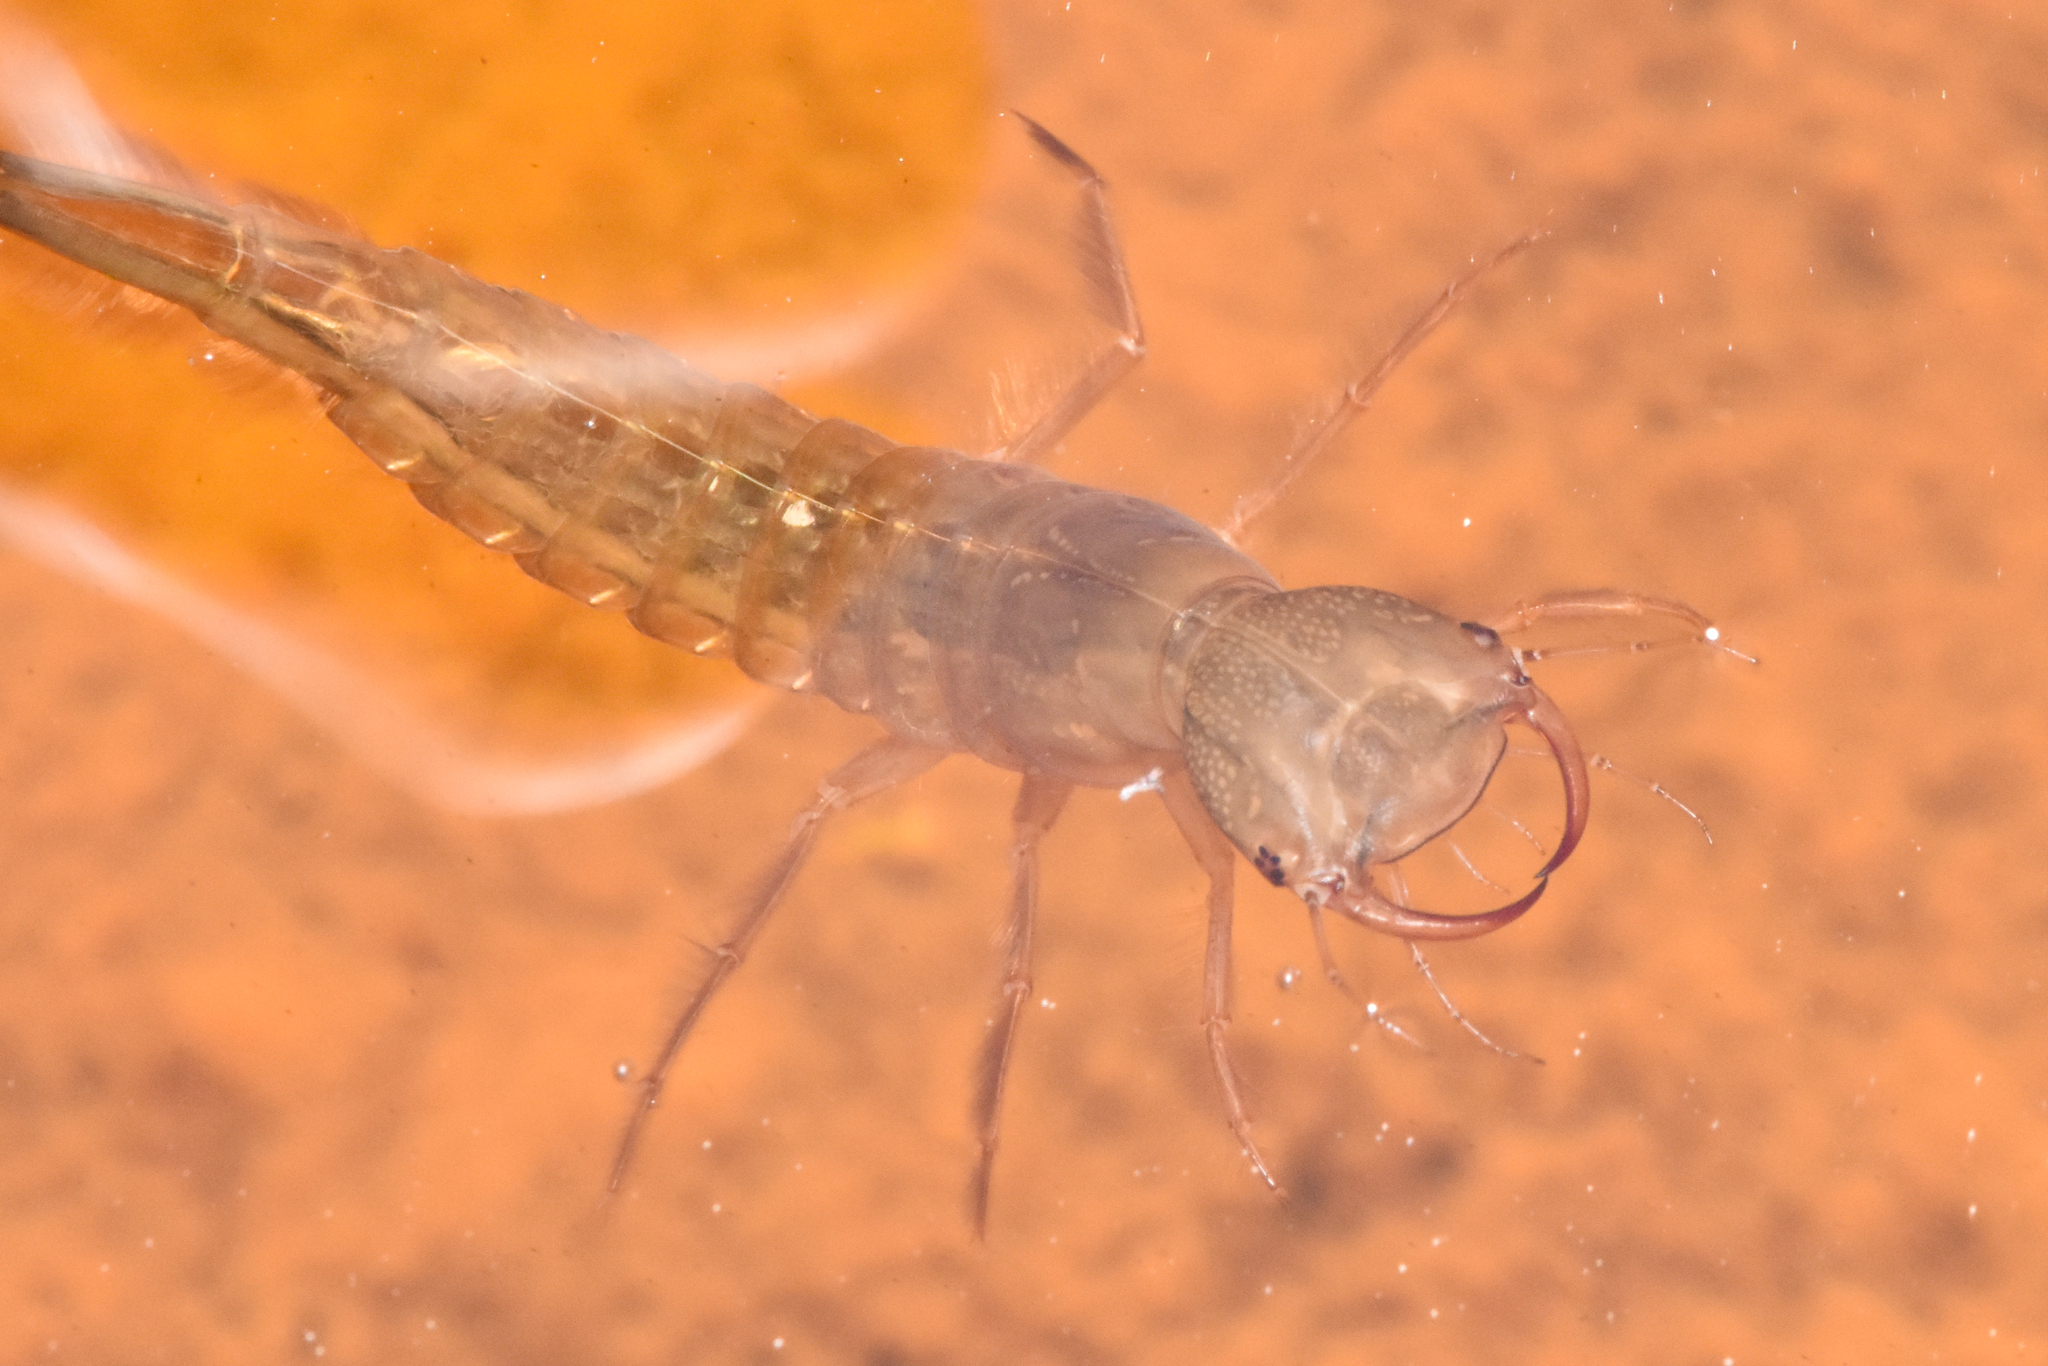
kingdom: Animalia
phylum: Arthropoda
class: Insecta
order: Coleoptera
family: Dytiscidae
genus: Dytiscus
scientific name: Dytiscus
